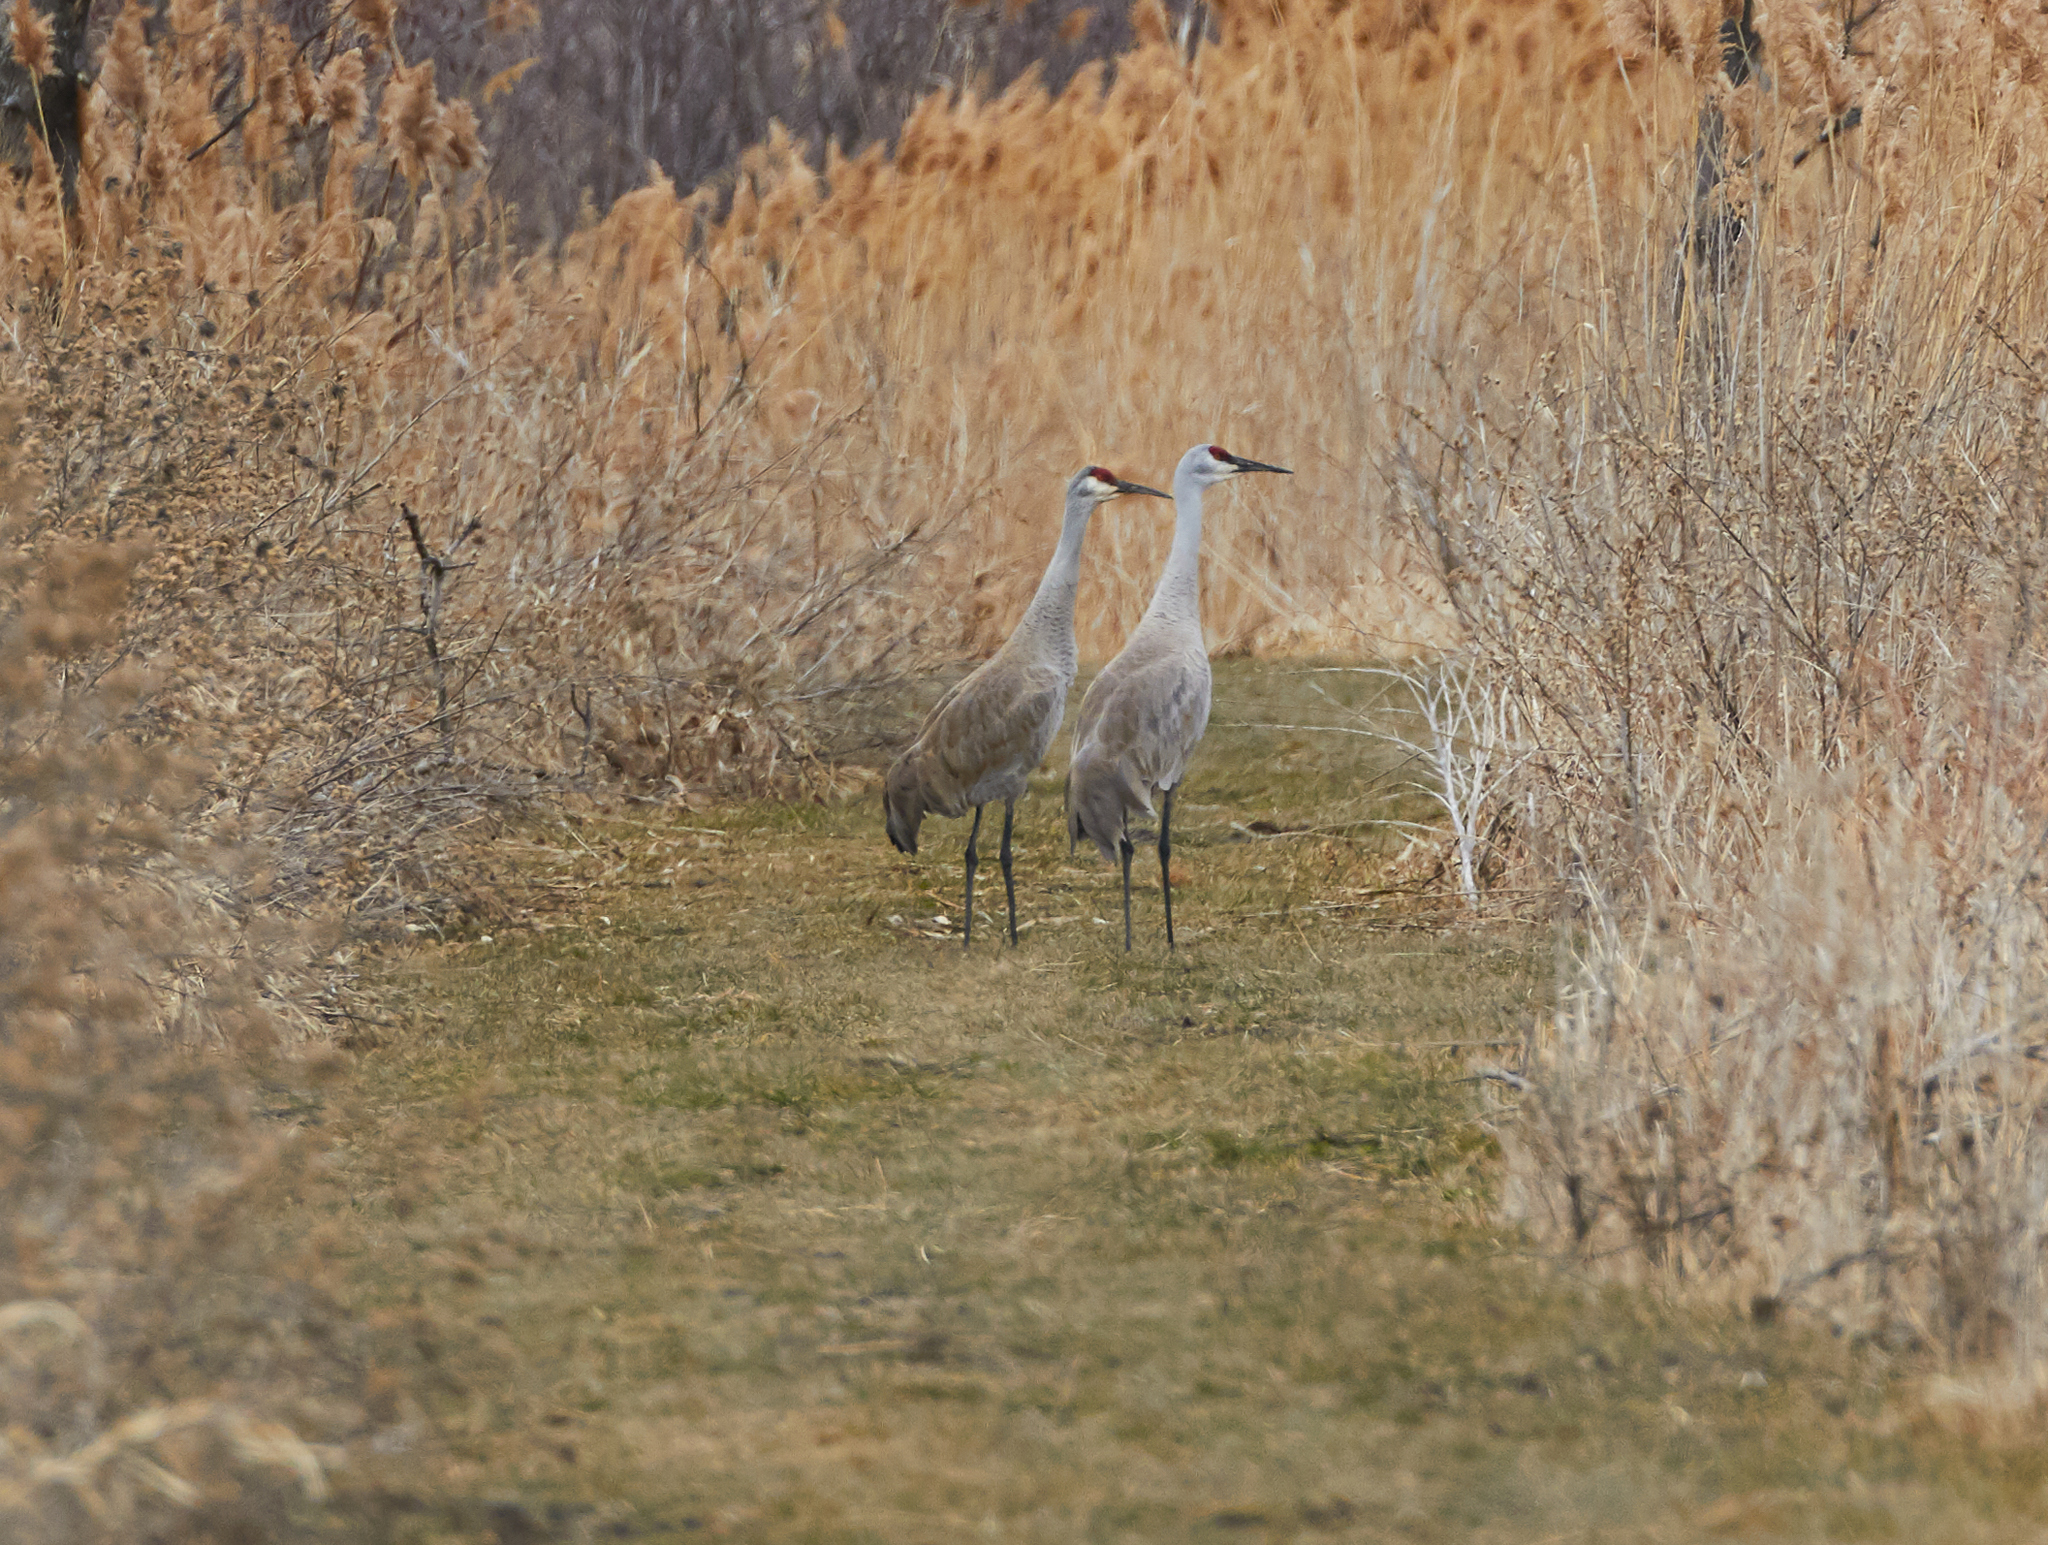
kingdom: Animalia
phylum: Chordata
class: Aves
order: Gruiformes
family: Gruidae
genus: Grus
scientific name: Grus canadensis
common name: Sandhill crane
